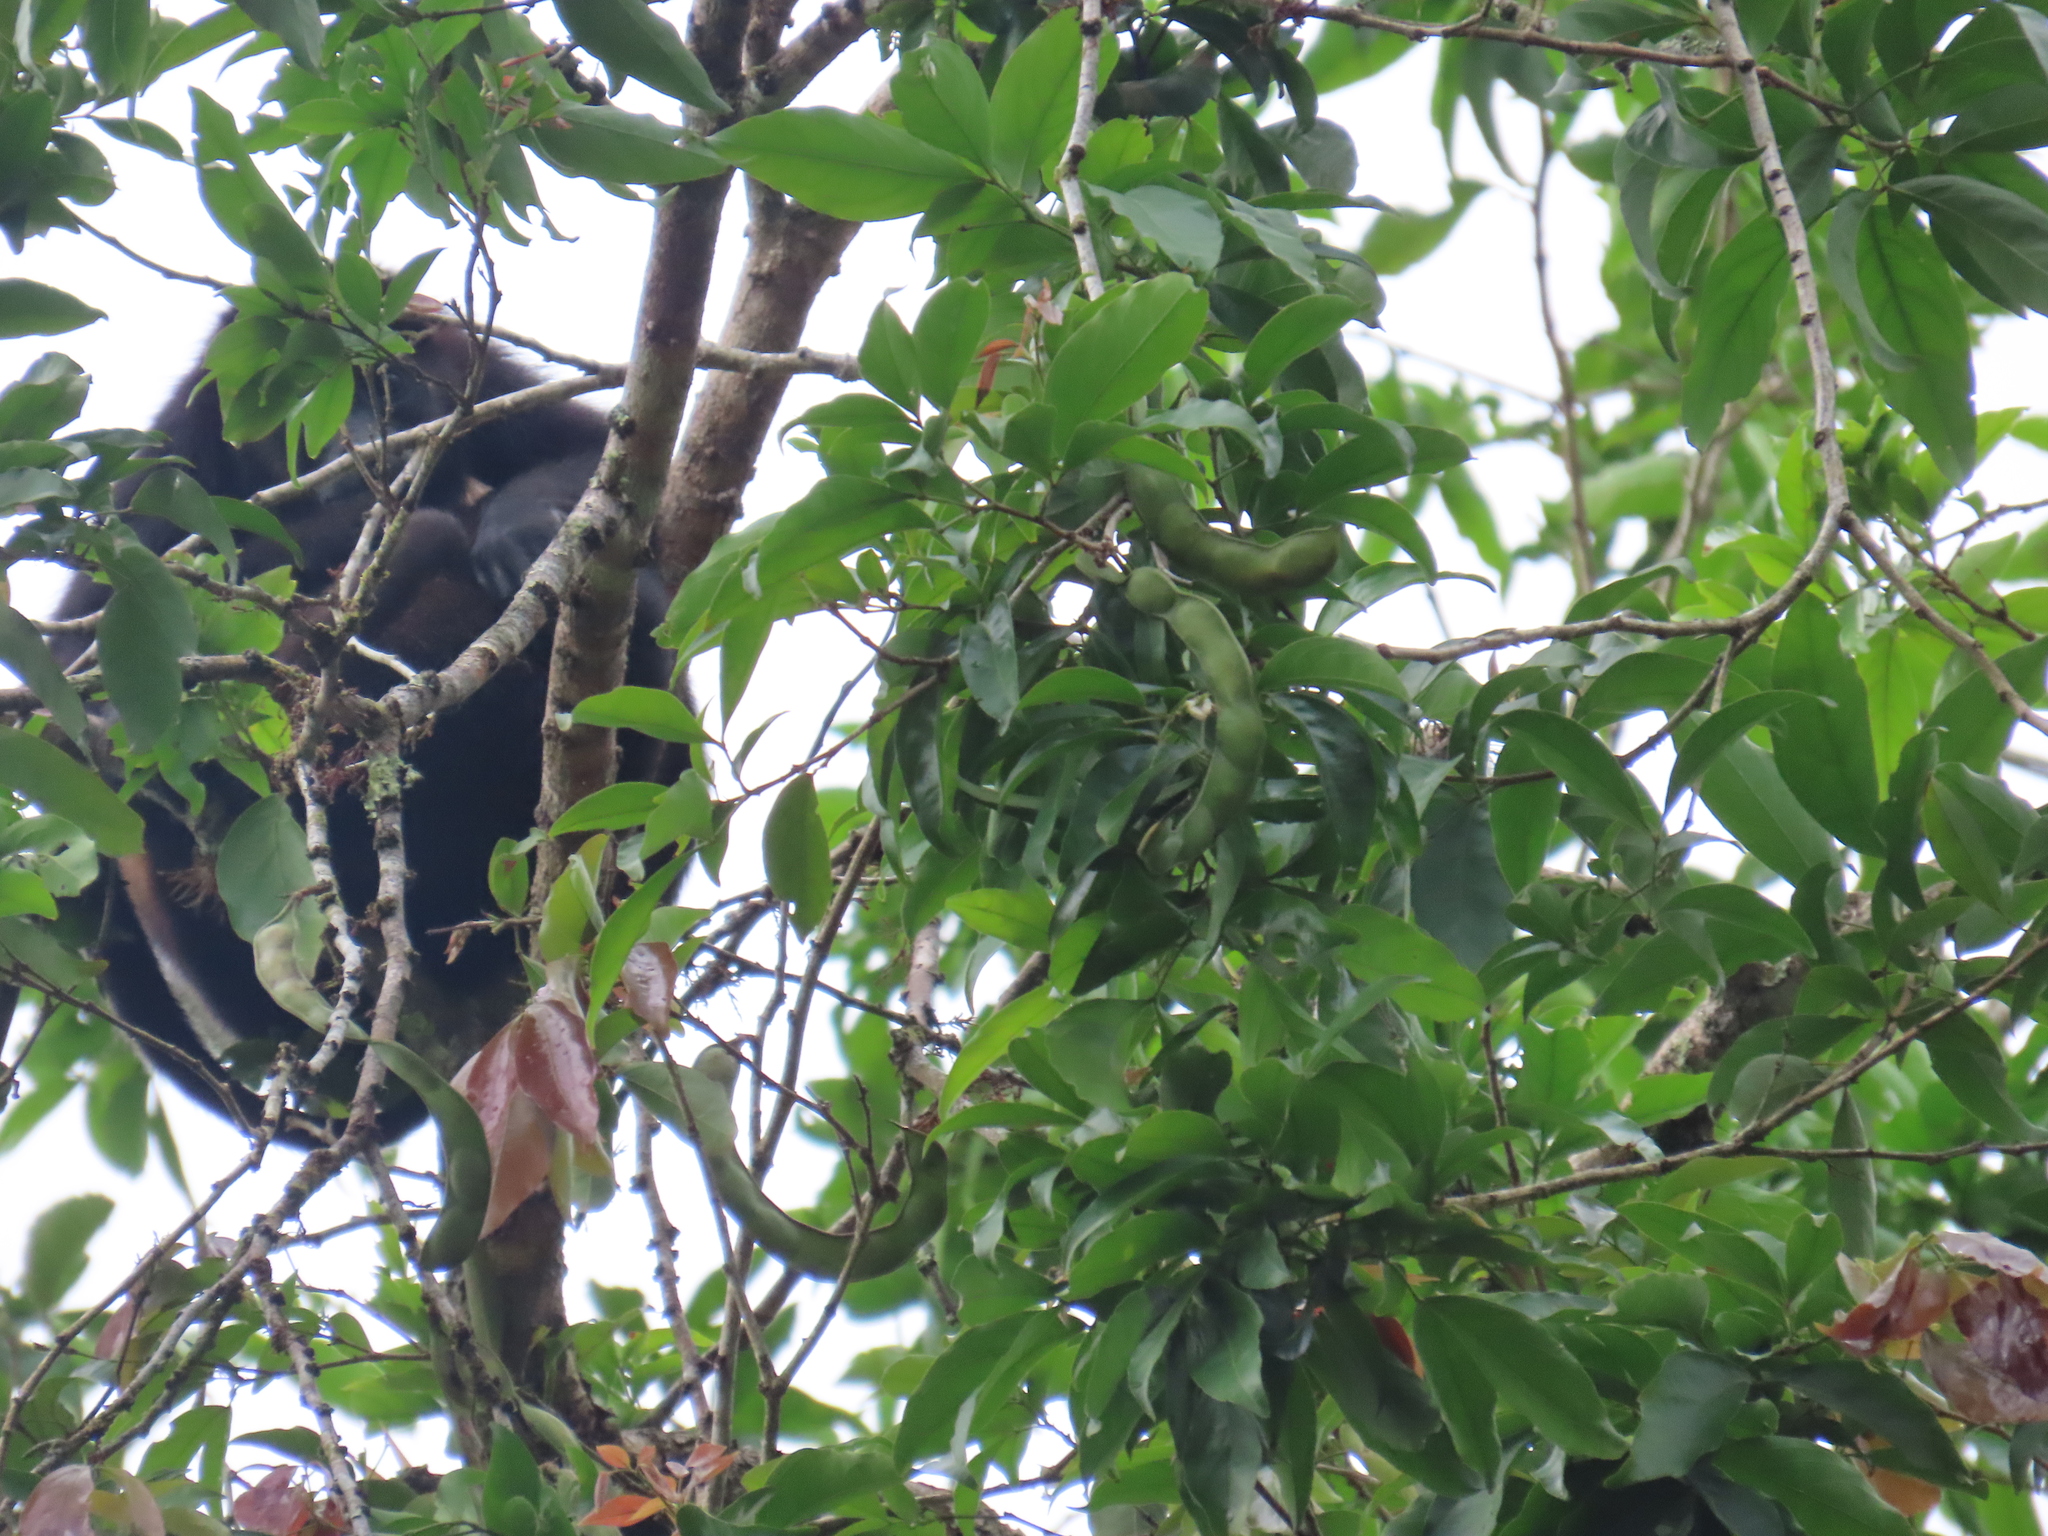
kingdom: Animalia
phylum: Chordata
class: Mammalia
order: Primates
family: Atelidae
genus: Alouatta
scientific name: Alouatta palliata
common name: Mantled howler
